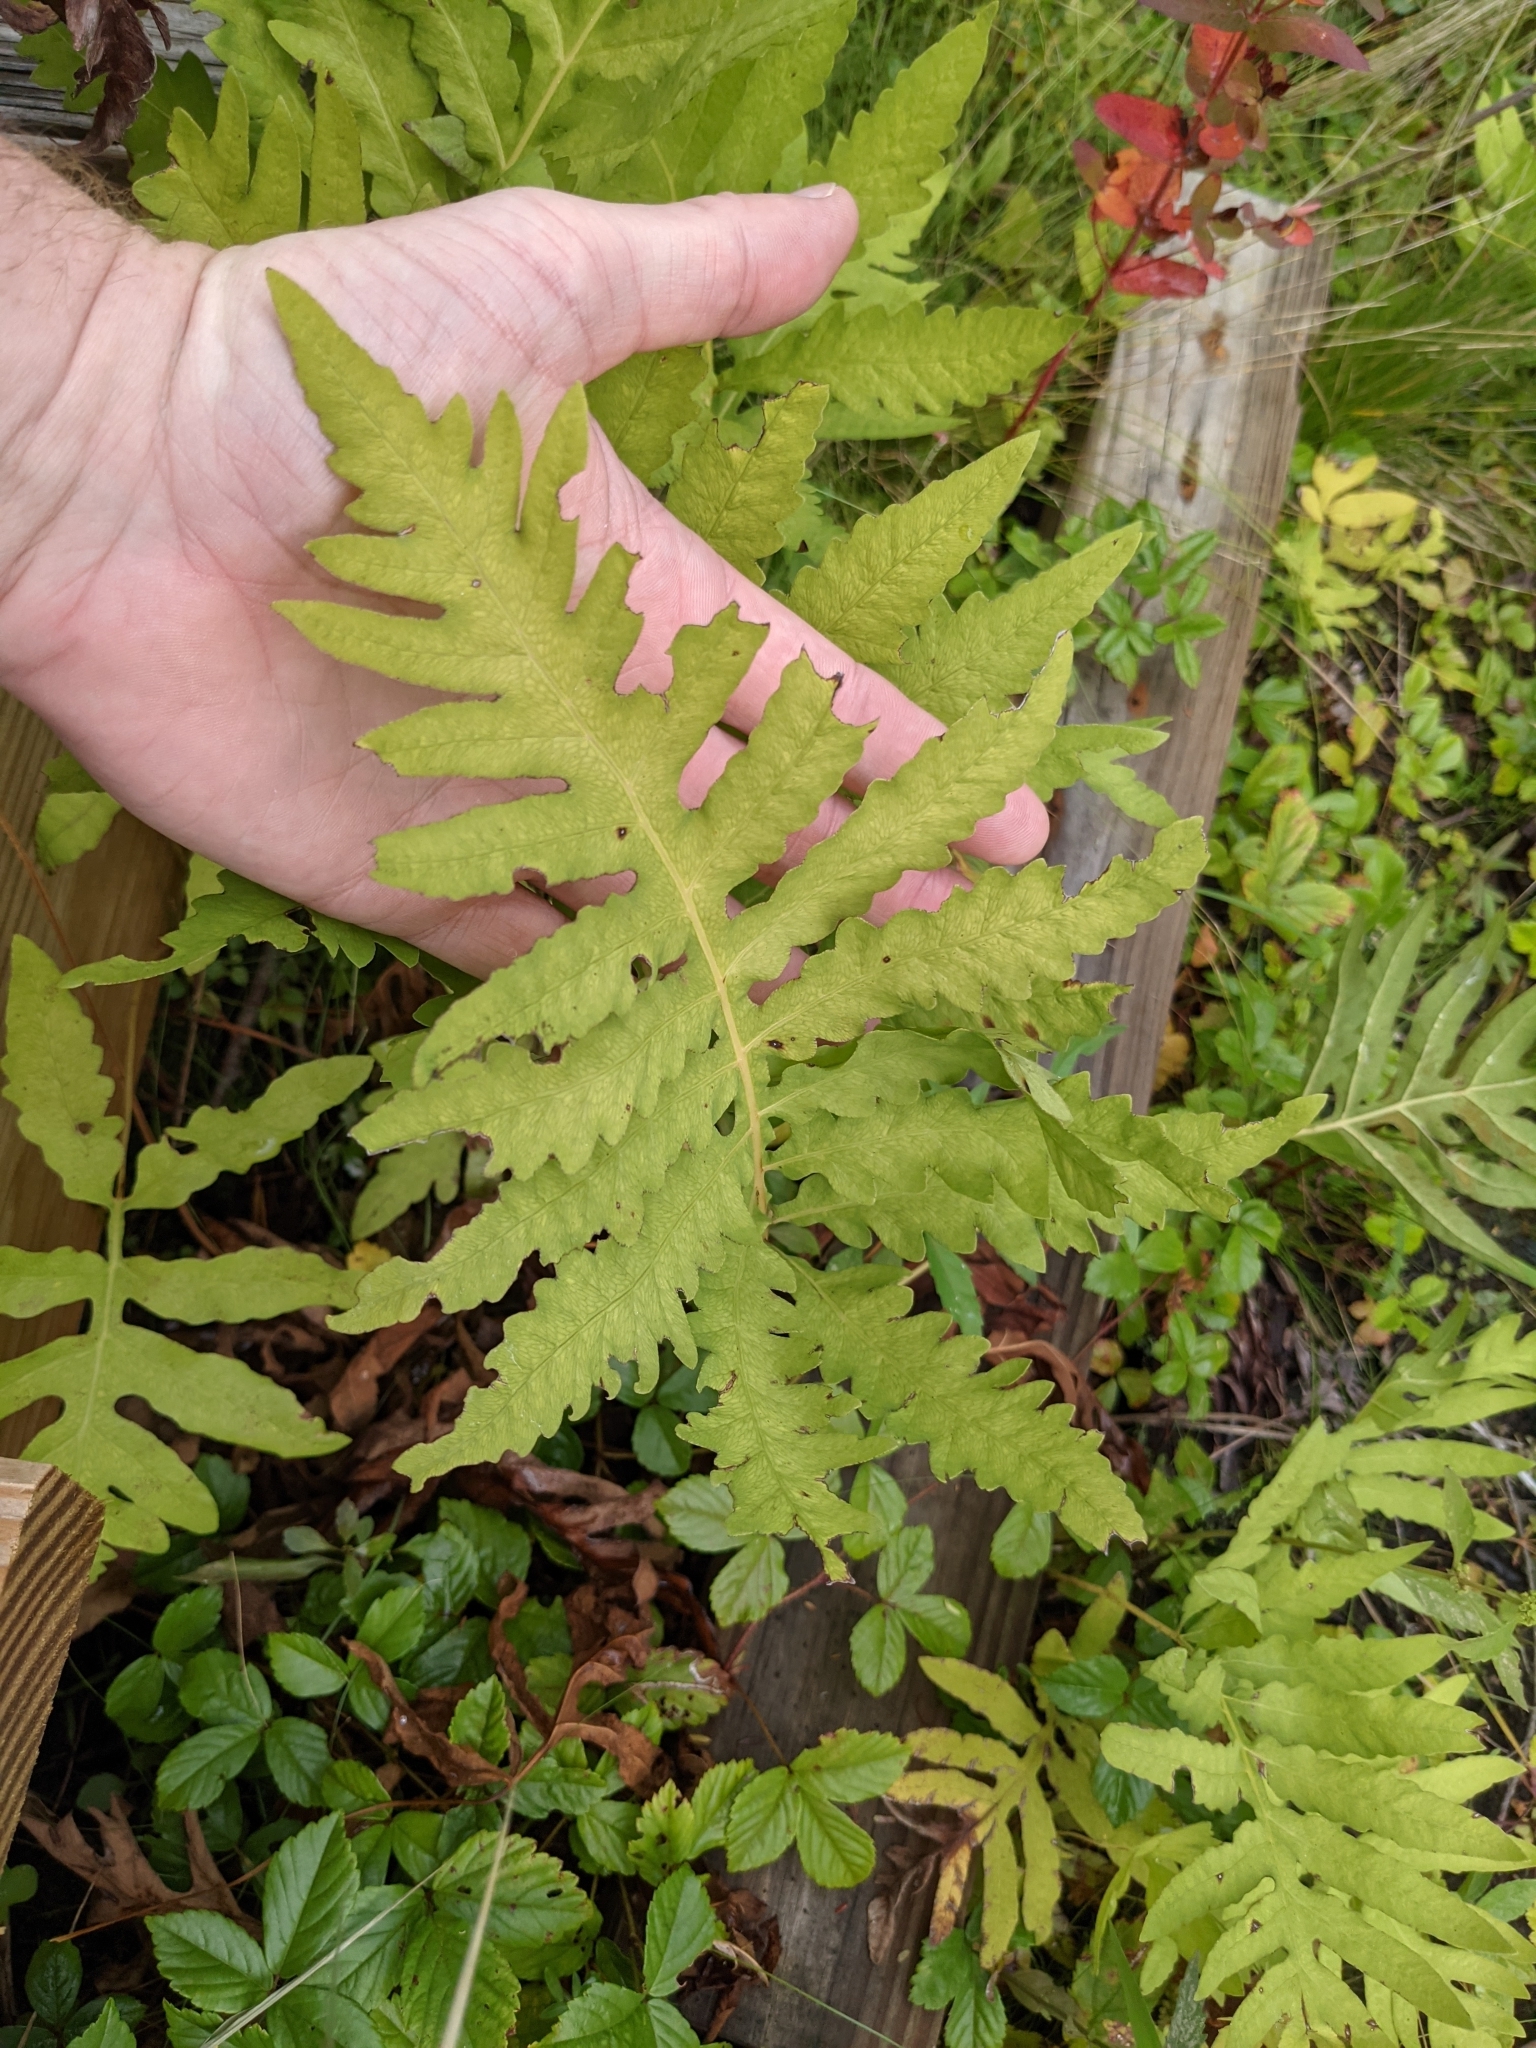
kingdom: Plantae
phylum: Tracheophyta
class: Polypodiopsida
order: Polypodiales
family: Onocleaceae
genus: Onoclea
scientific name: Onoclea sensibilis
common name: Sensitive fern
